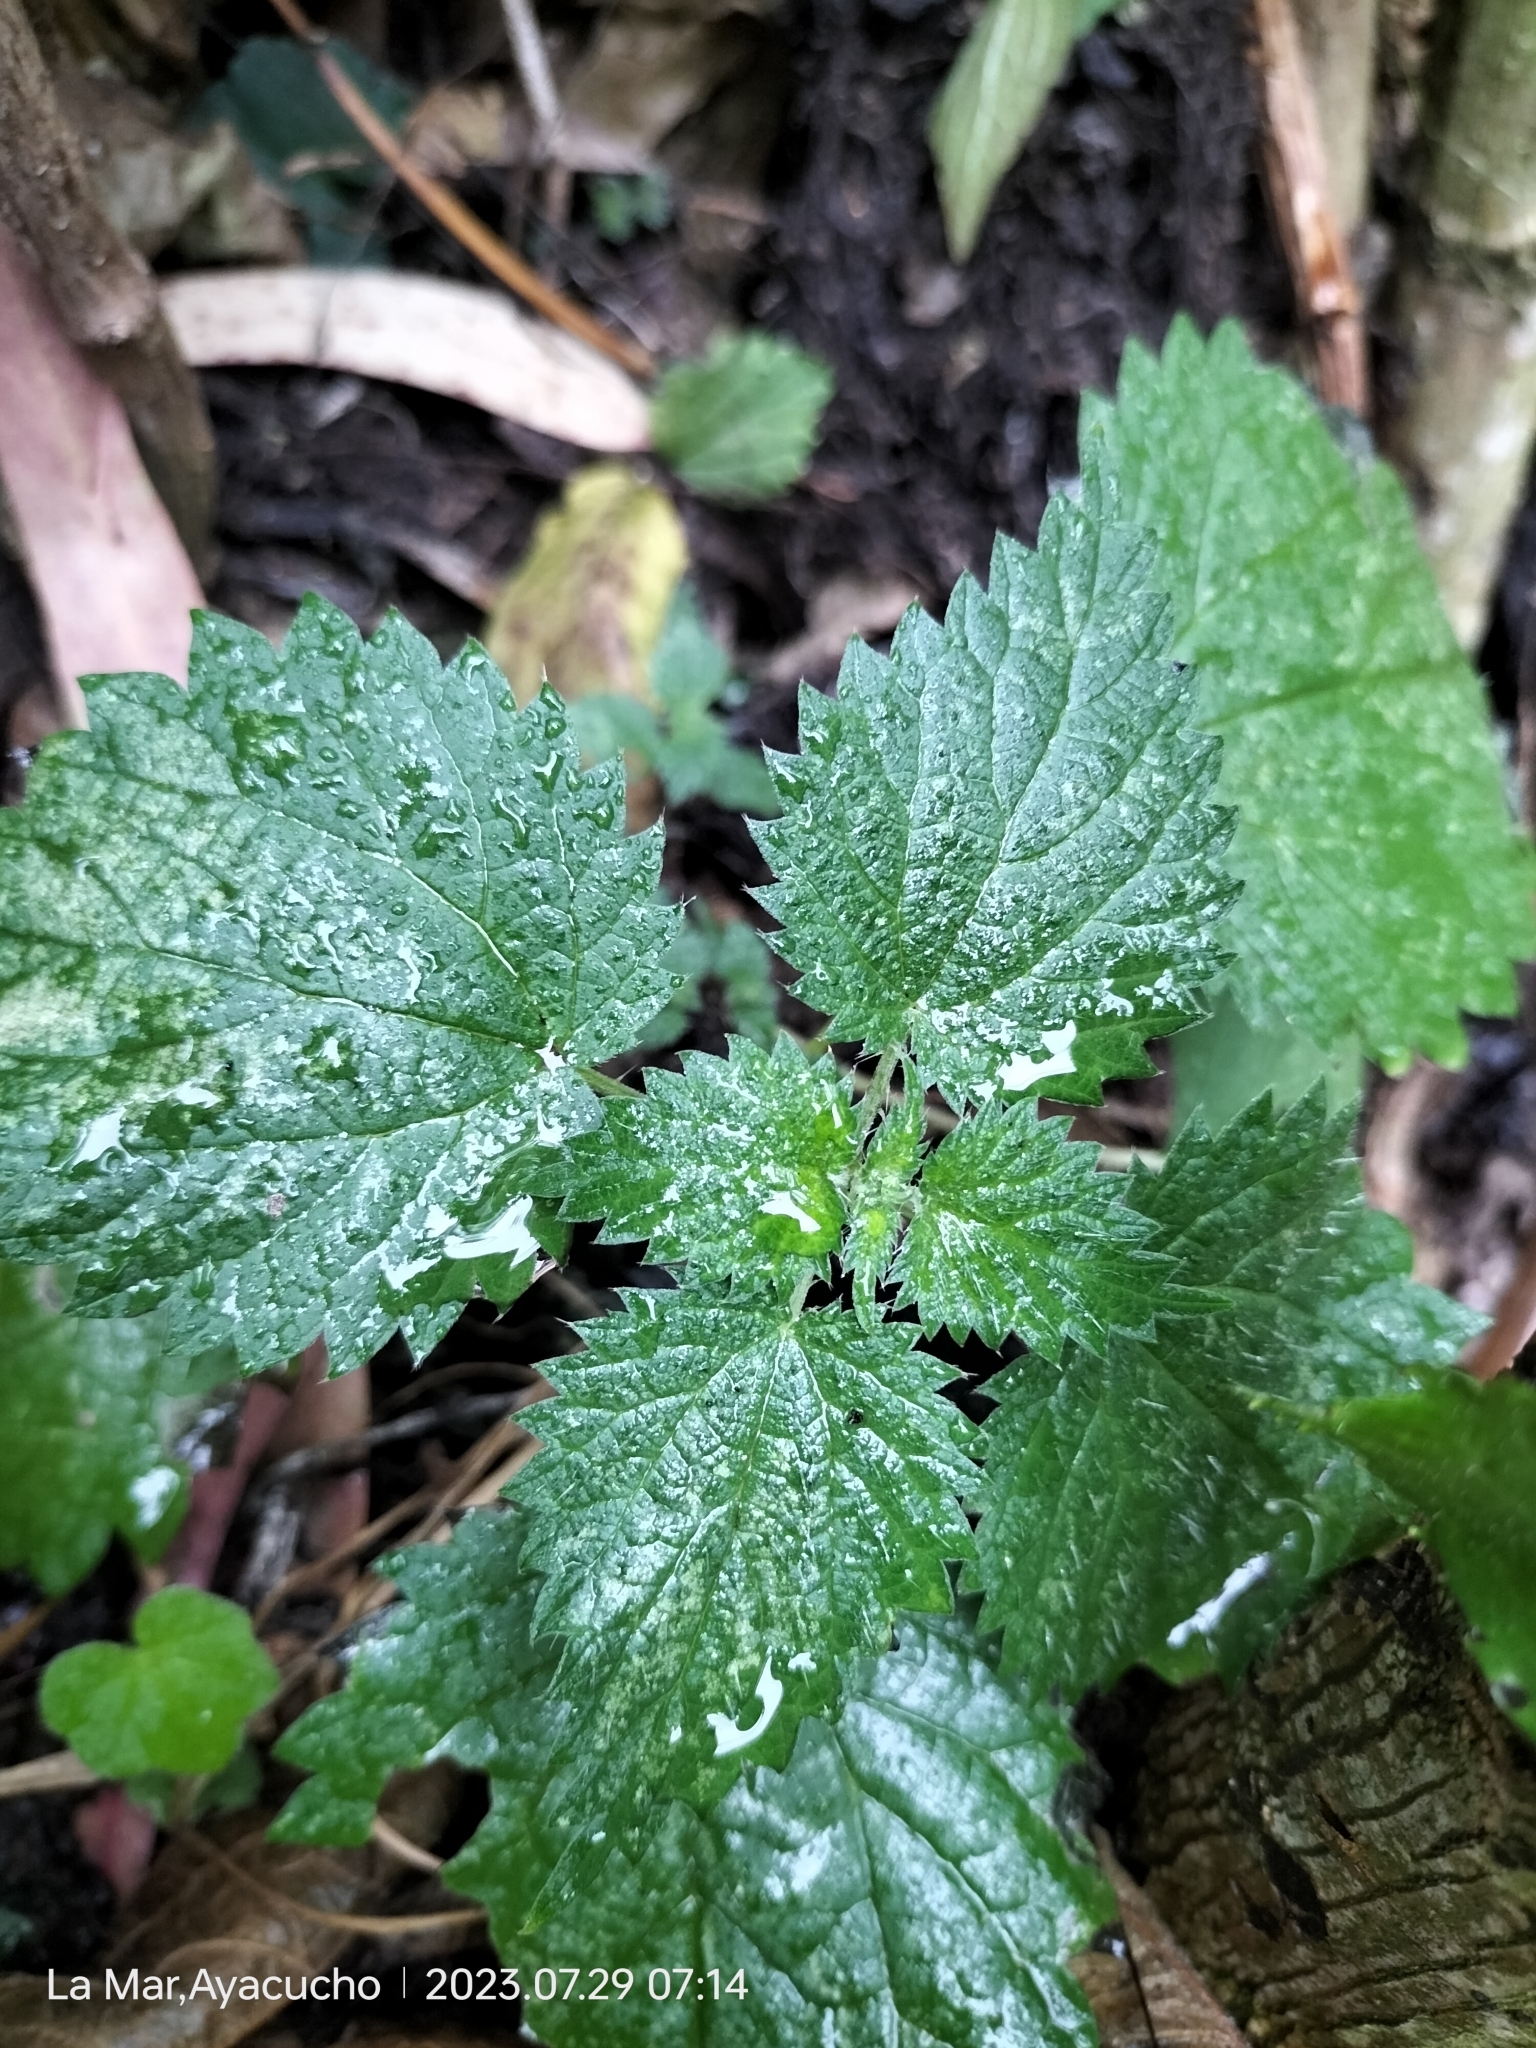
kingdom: Plantae
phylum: Tracheophyta
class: Magnoliopsida
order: Rosales
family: Urticaceae
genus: Urtica
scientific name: Urtica urens
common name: Dwarf nettle
